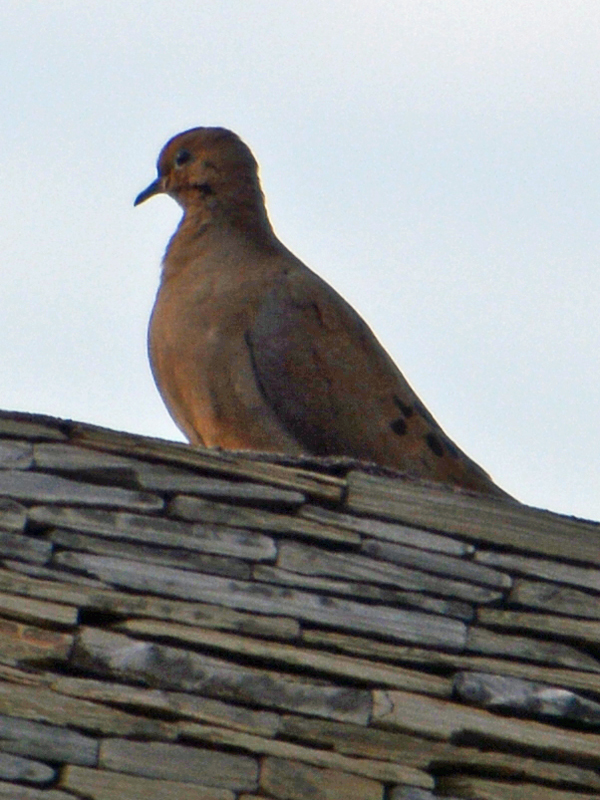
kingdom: Animalia
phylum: Chordata
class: Aves
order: Columbiformes
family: Columbidae
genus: Zenaida
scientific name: Zenaida macroura
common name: Mourning dove
